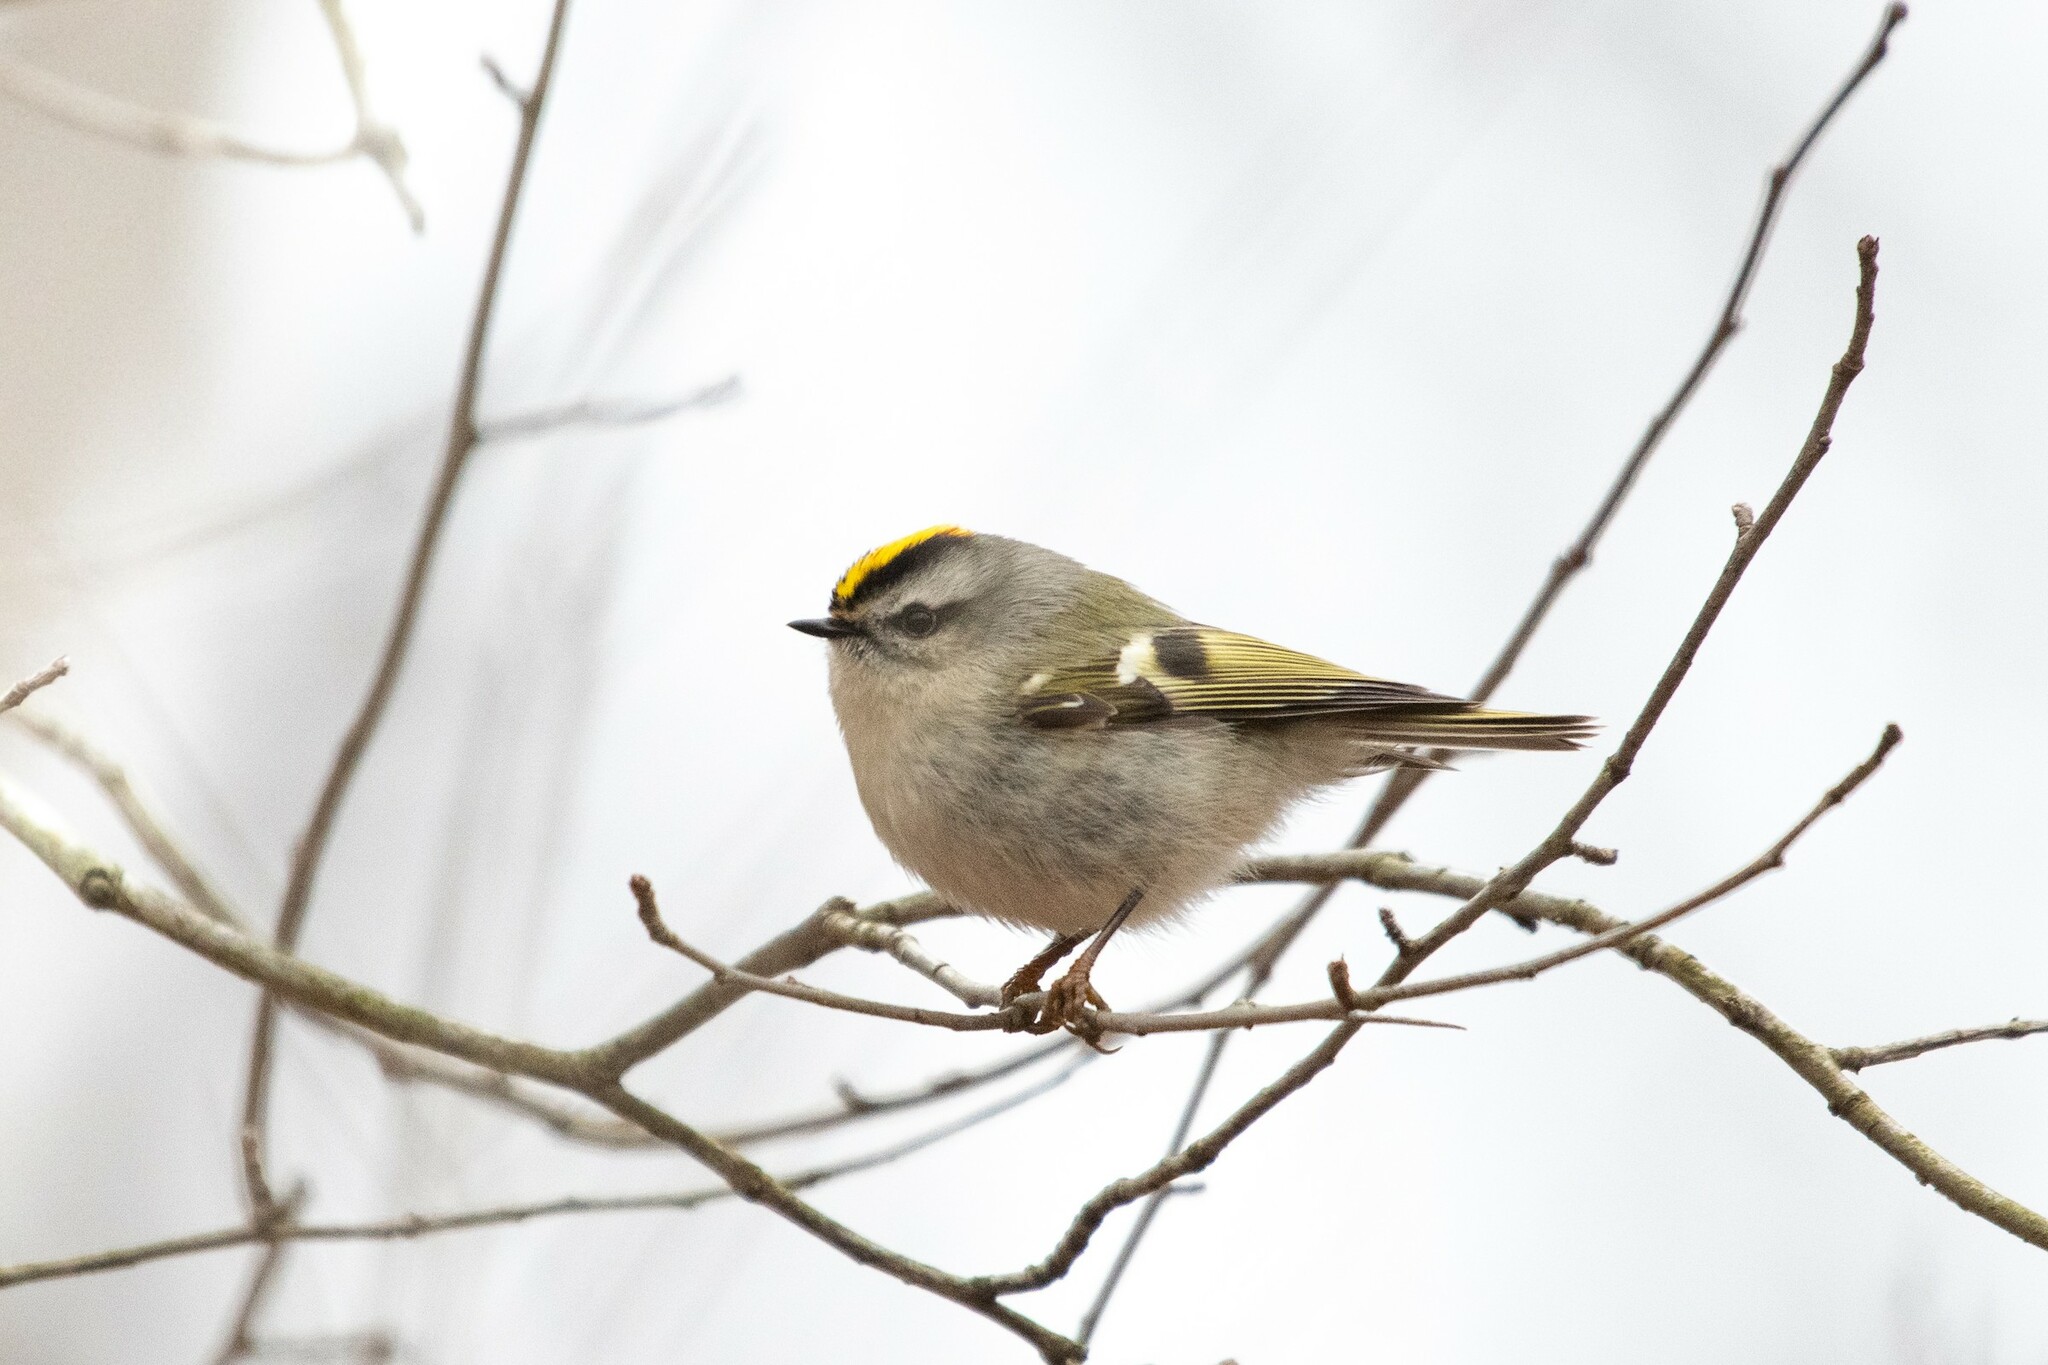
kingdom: Animalia
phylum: Chordata
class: Aves
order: Passeriformes
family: Regulidae
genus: Regulus
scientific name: Regulus satrapa
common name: Golden-crowned kinglet
